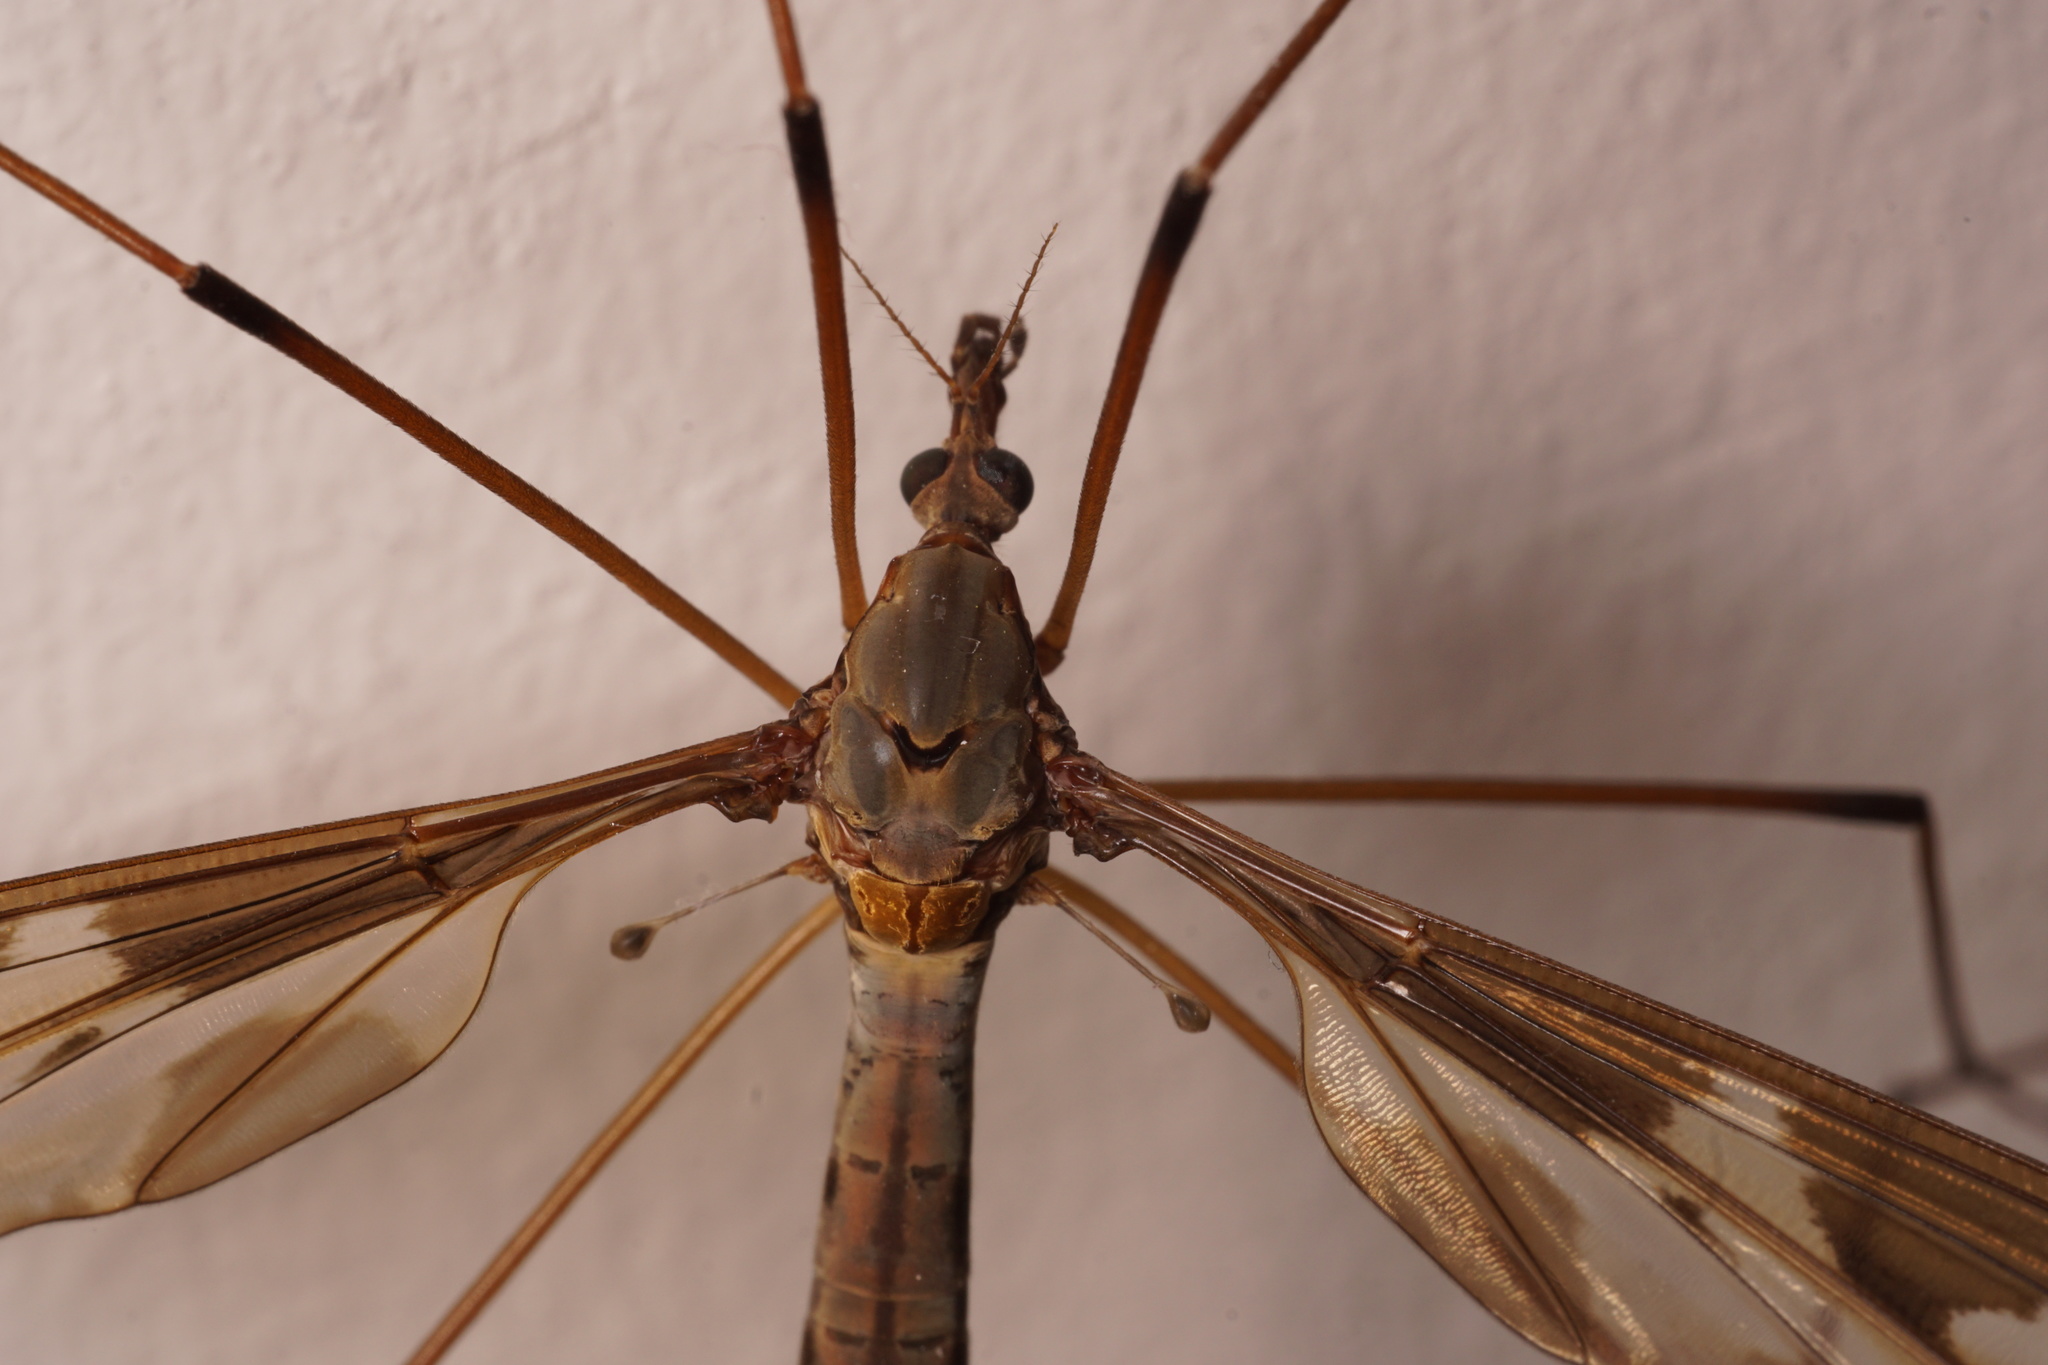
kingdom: Animalia
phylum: Arthropoda
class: Insecta
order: Diptera
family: Tipulidae
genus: Tipula
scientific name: Tipula maxima
